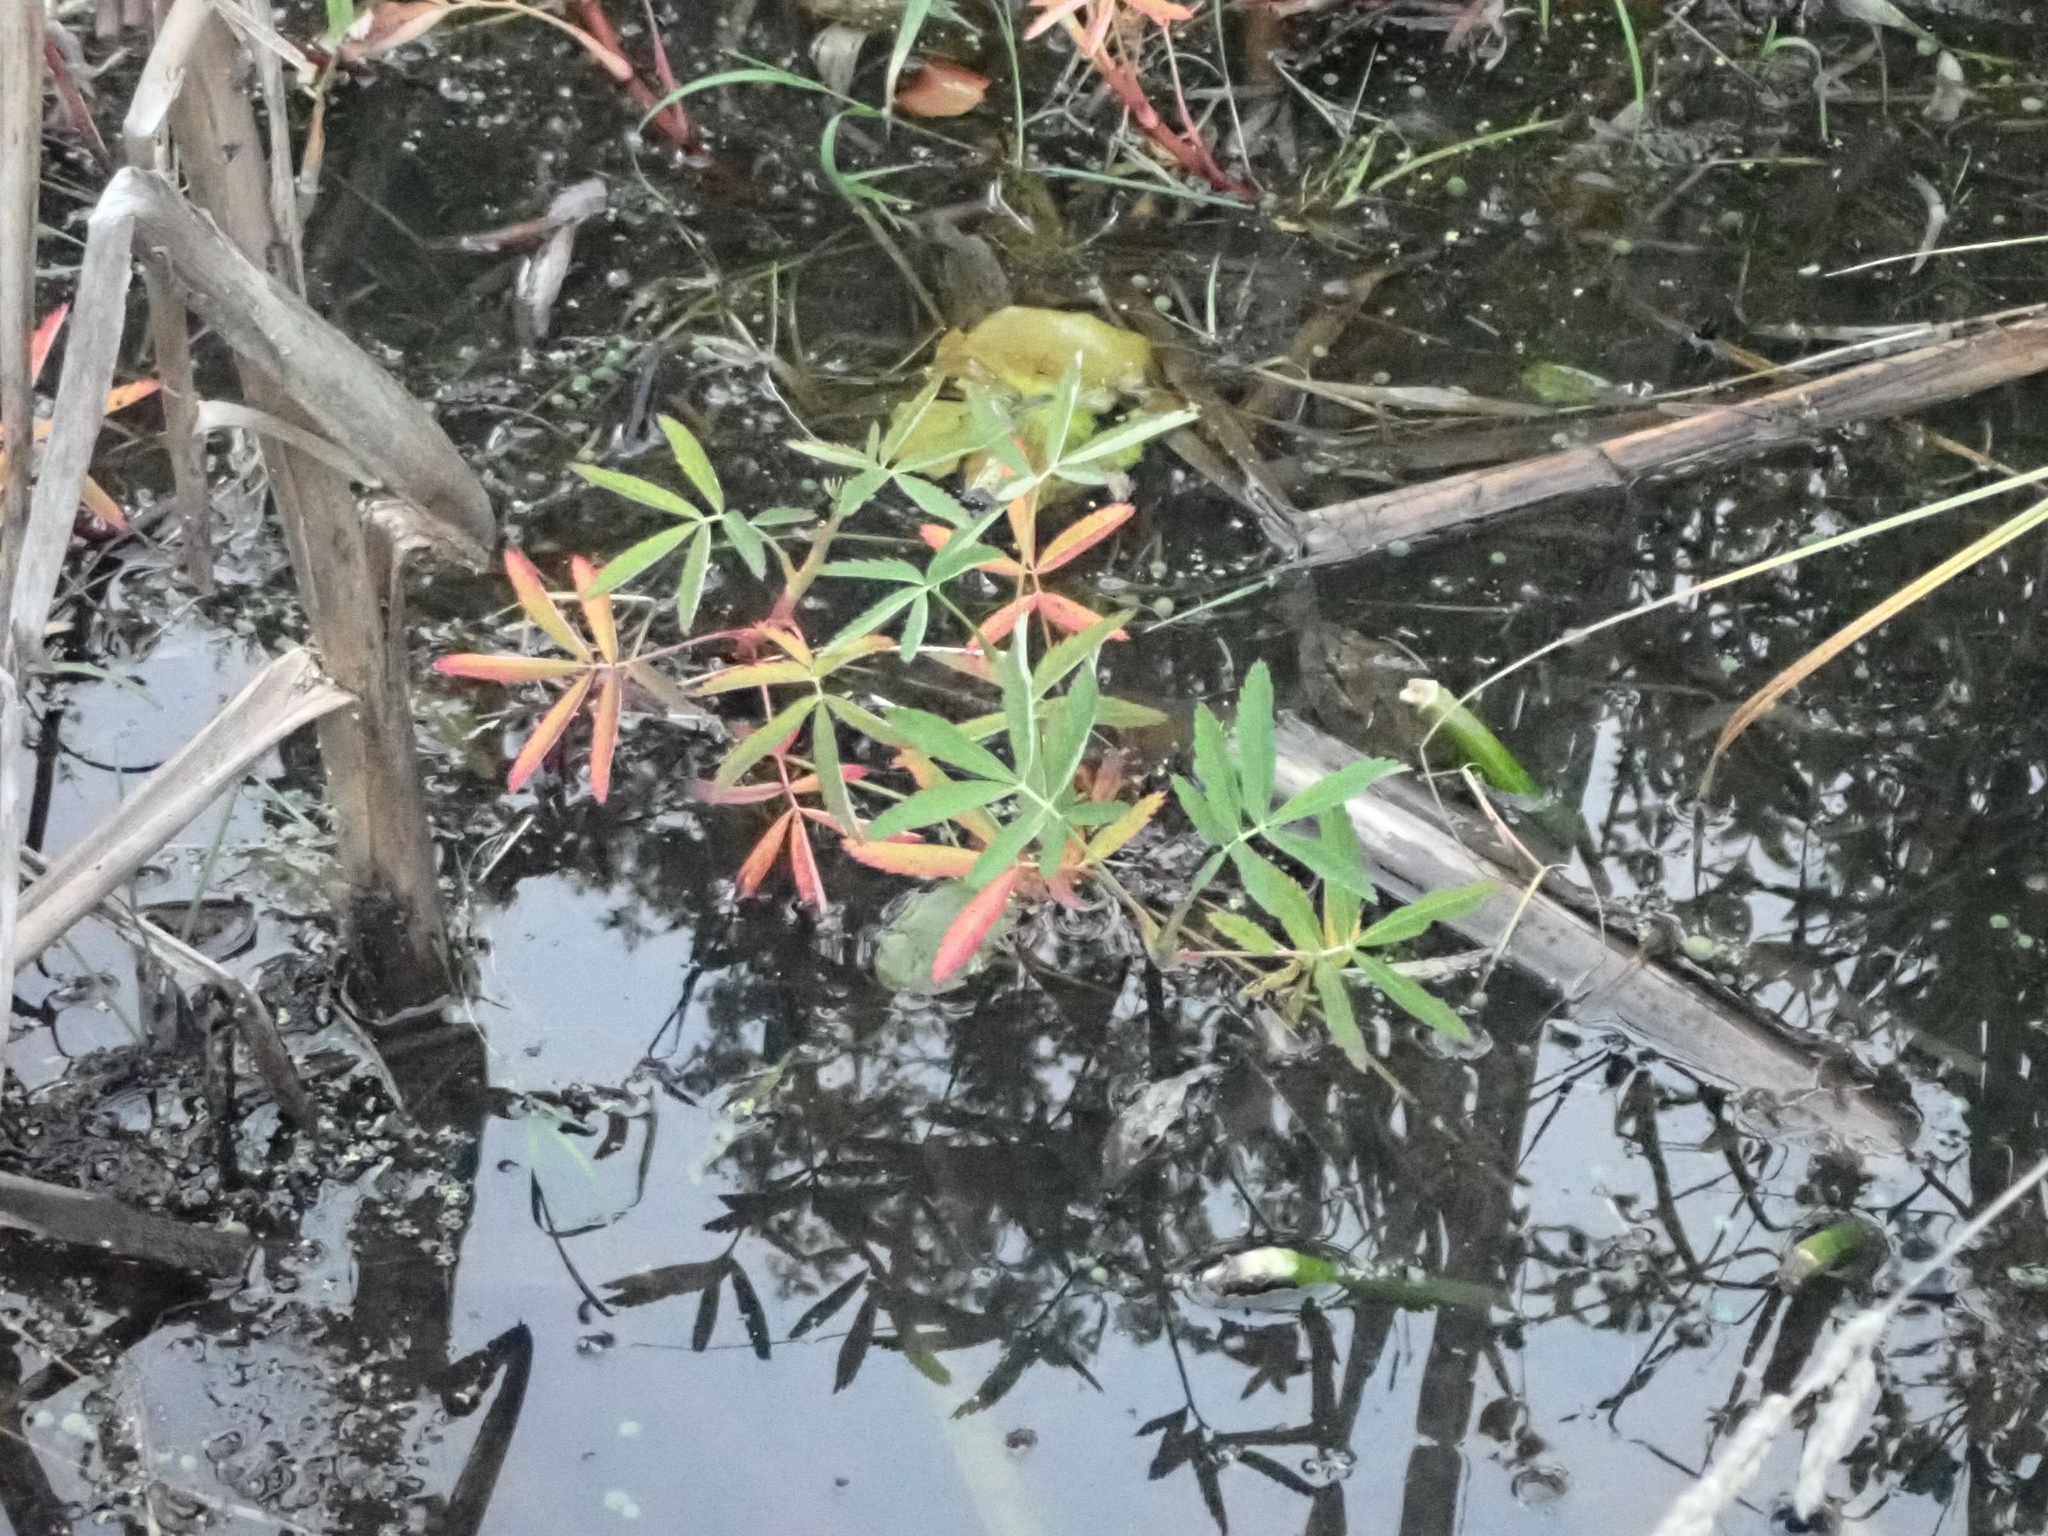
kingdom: Plantae
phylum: Tracheophyta
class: Magnoliopsida
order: Rosales
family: Rosaceae
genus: Comarum
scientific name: Comarum palustre
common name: Marsh cinquefoil
